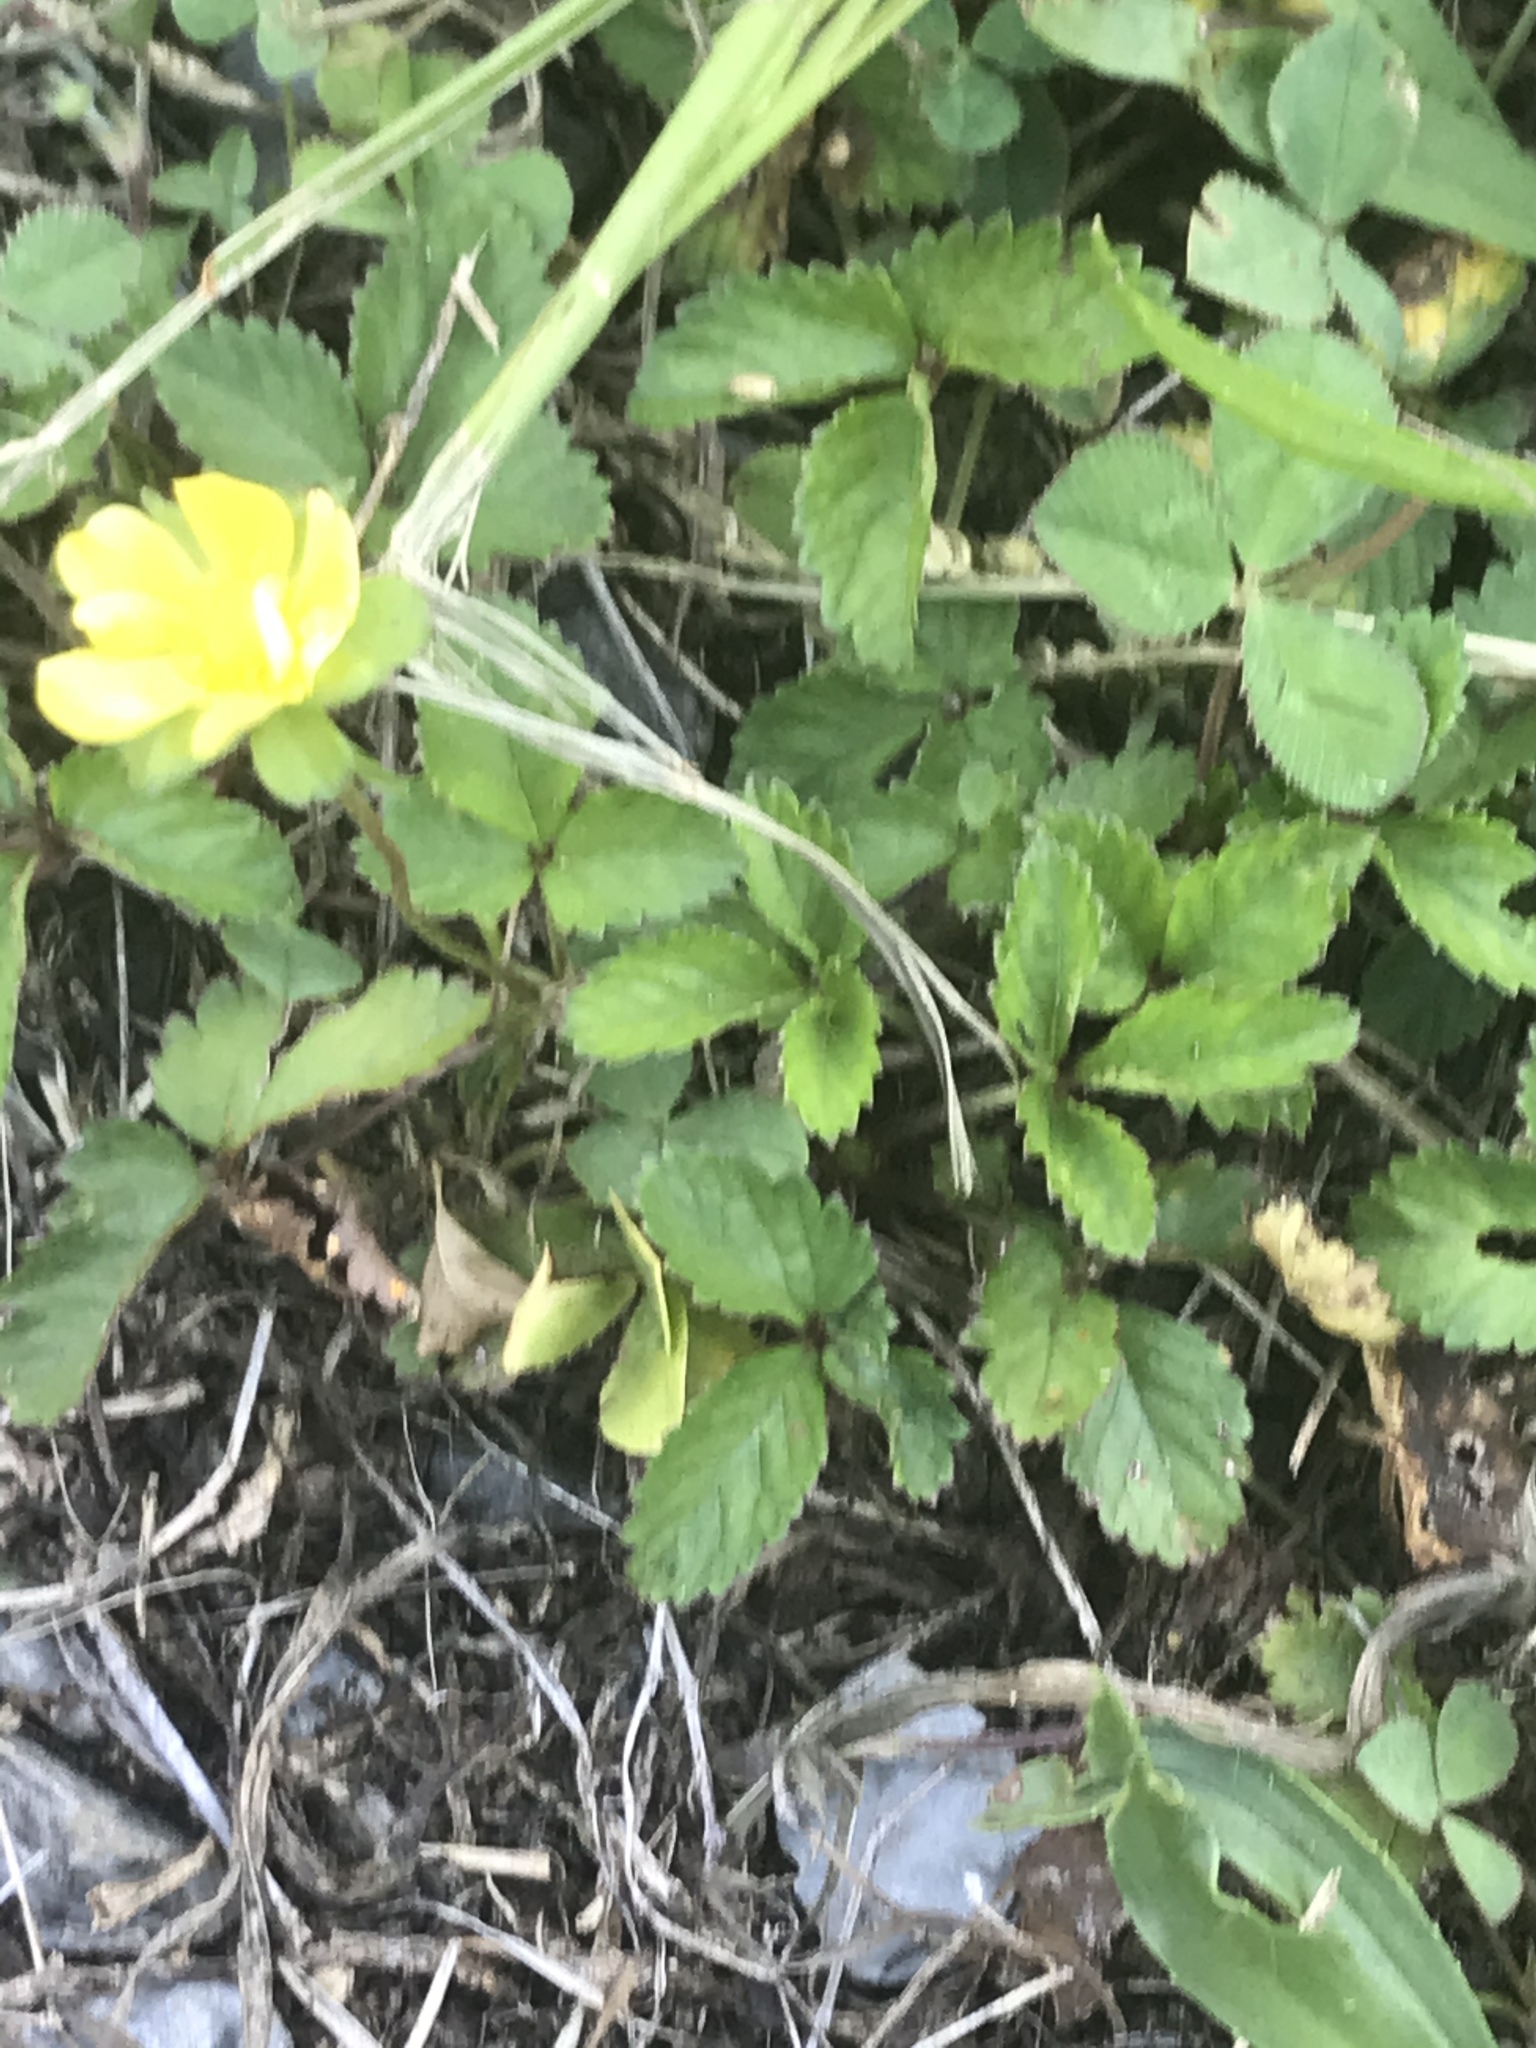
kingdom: Plantae
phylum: Tracheophyta
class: Magnoliopsida
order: Rosales
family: Rosaceae
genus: Potentilla
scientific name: Potentilla indica
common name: Yellow-flowered strawberry
